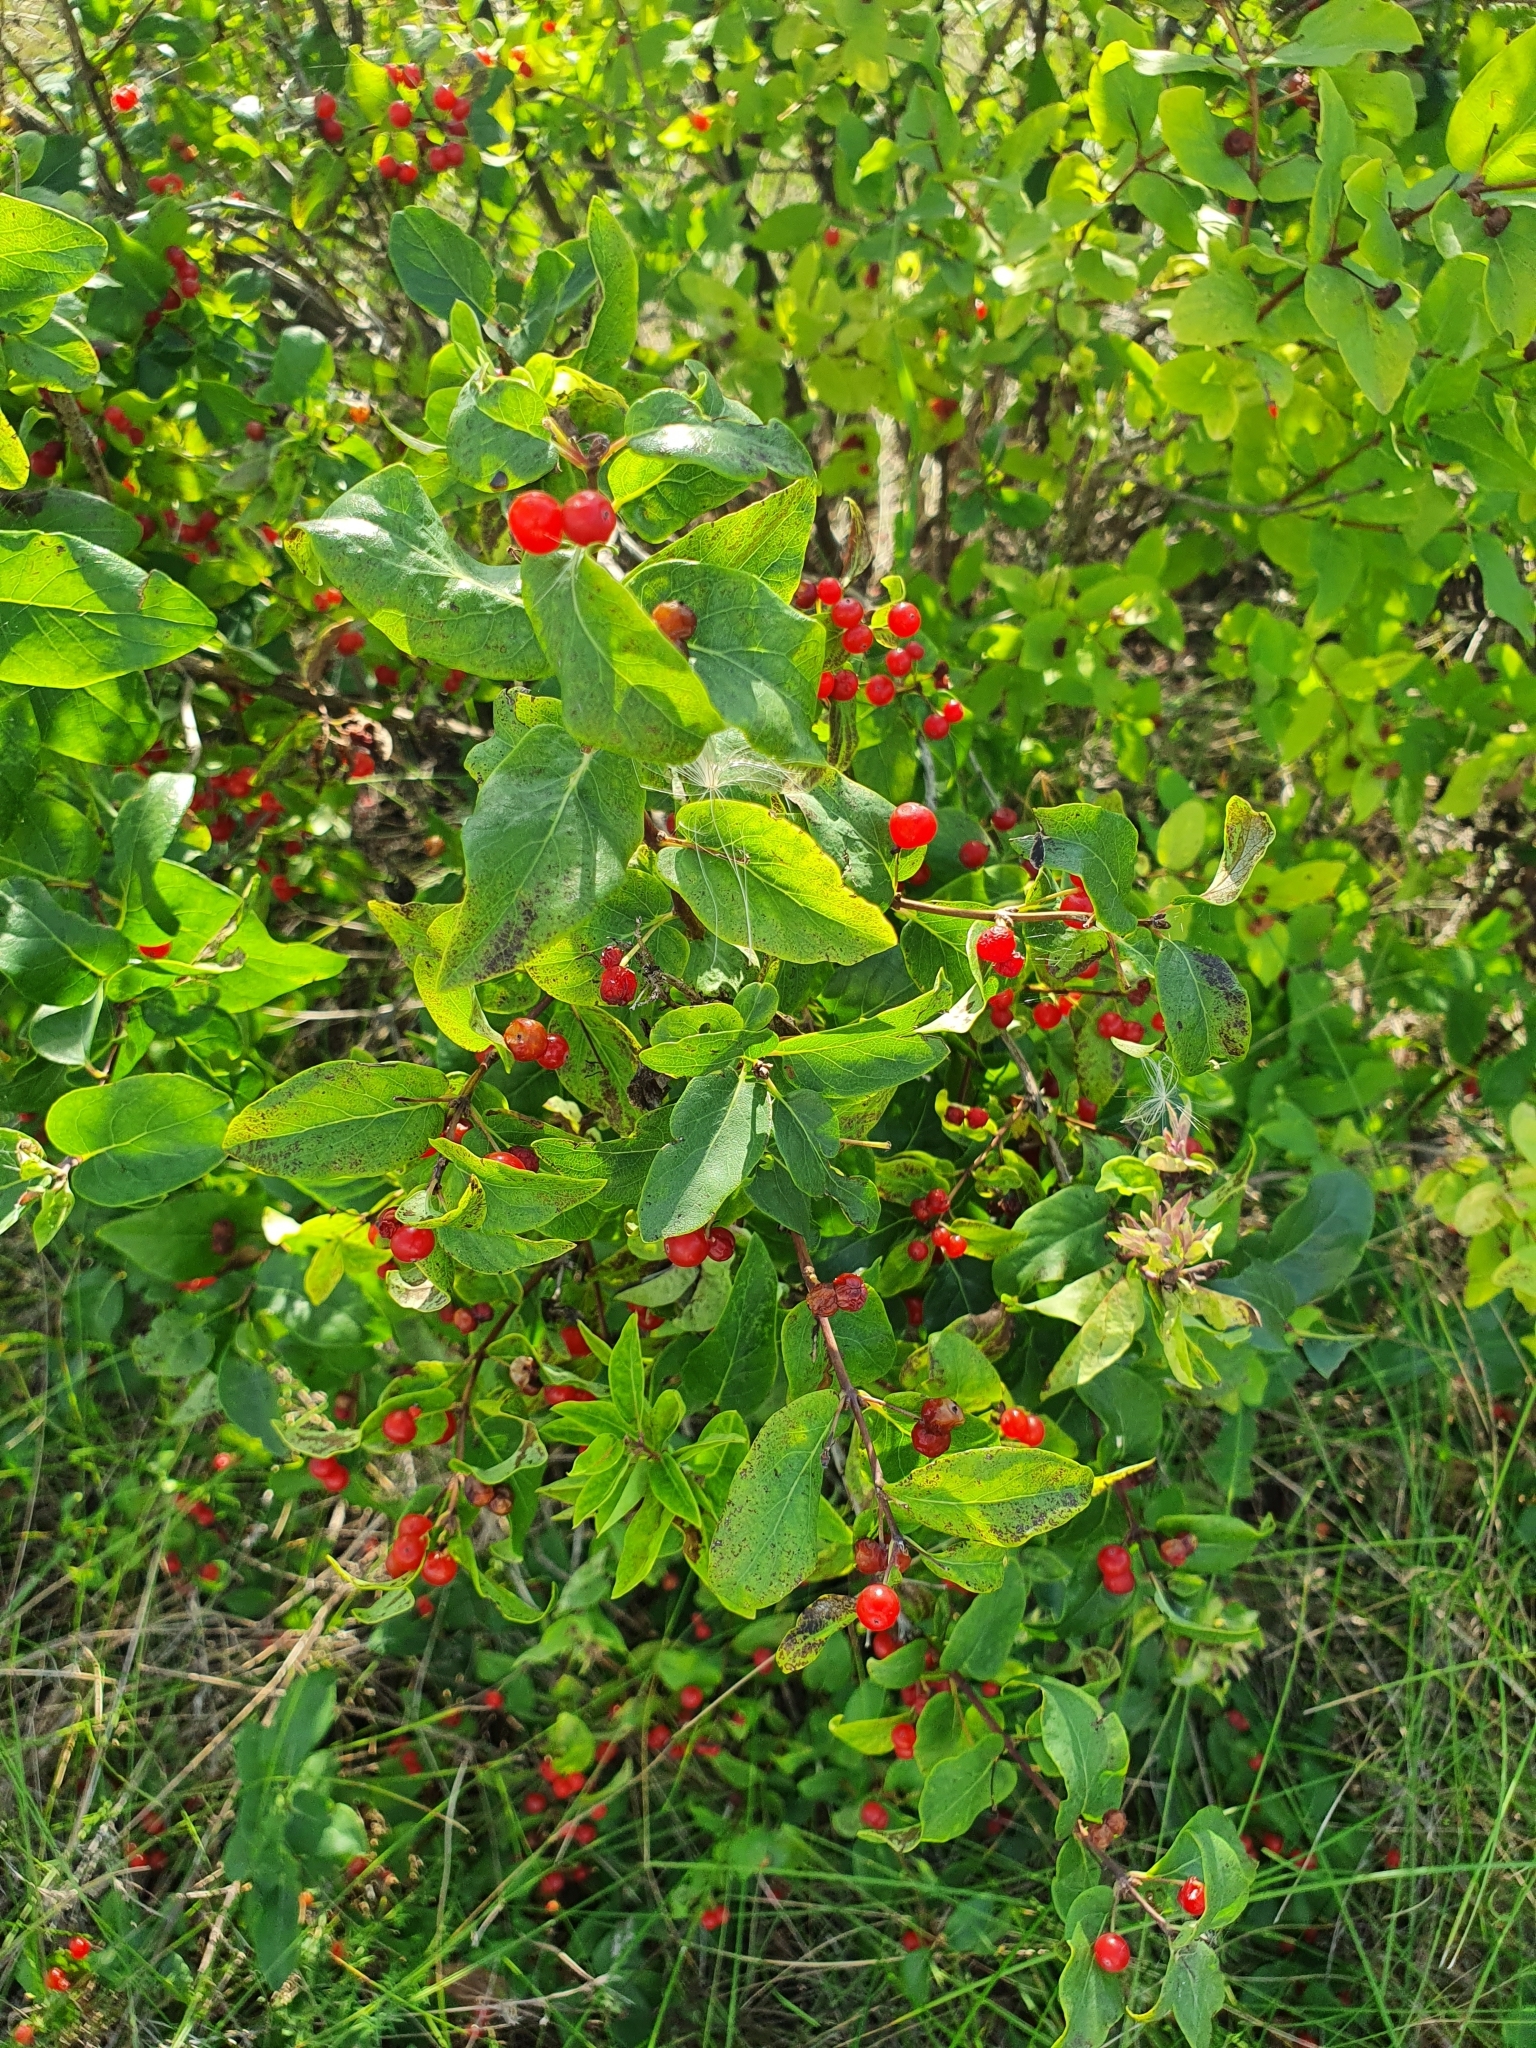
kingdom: Plantae
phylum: Tracheophyta
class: Magnoliopsida
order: Dipsacales
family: Caprifoliaceae
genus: Lonicera
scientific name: Lonicera tatarica
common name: Tatarian honeysuckle
